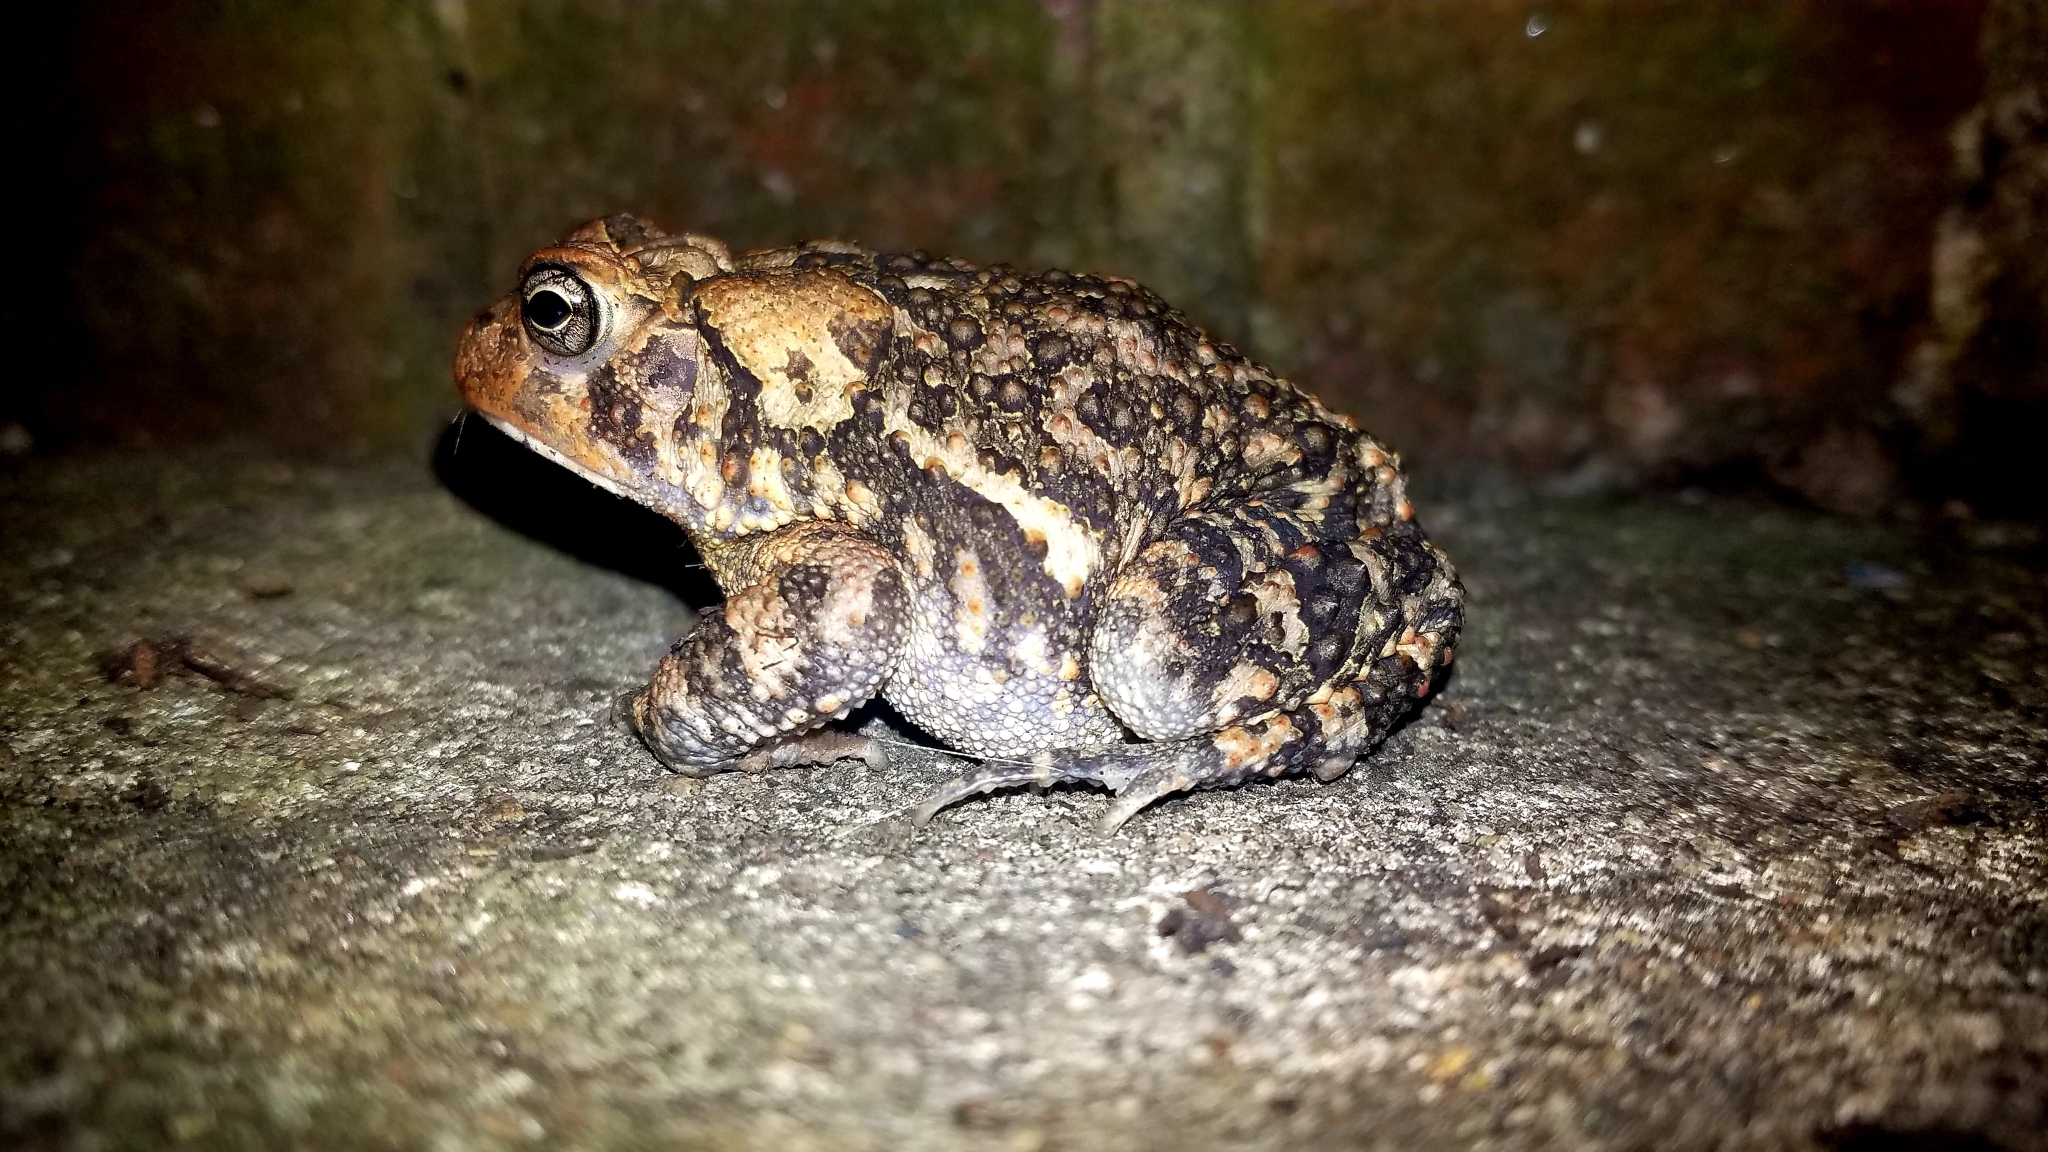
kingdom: Animalia
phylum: Chordata
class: Amphibia
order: Anura
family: Bufonidae
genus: Anaxyrus
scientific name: Anaxyrus terrestris
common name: Southern toad
